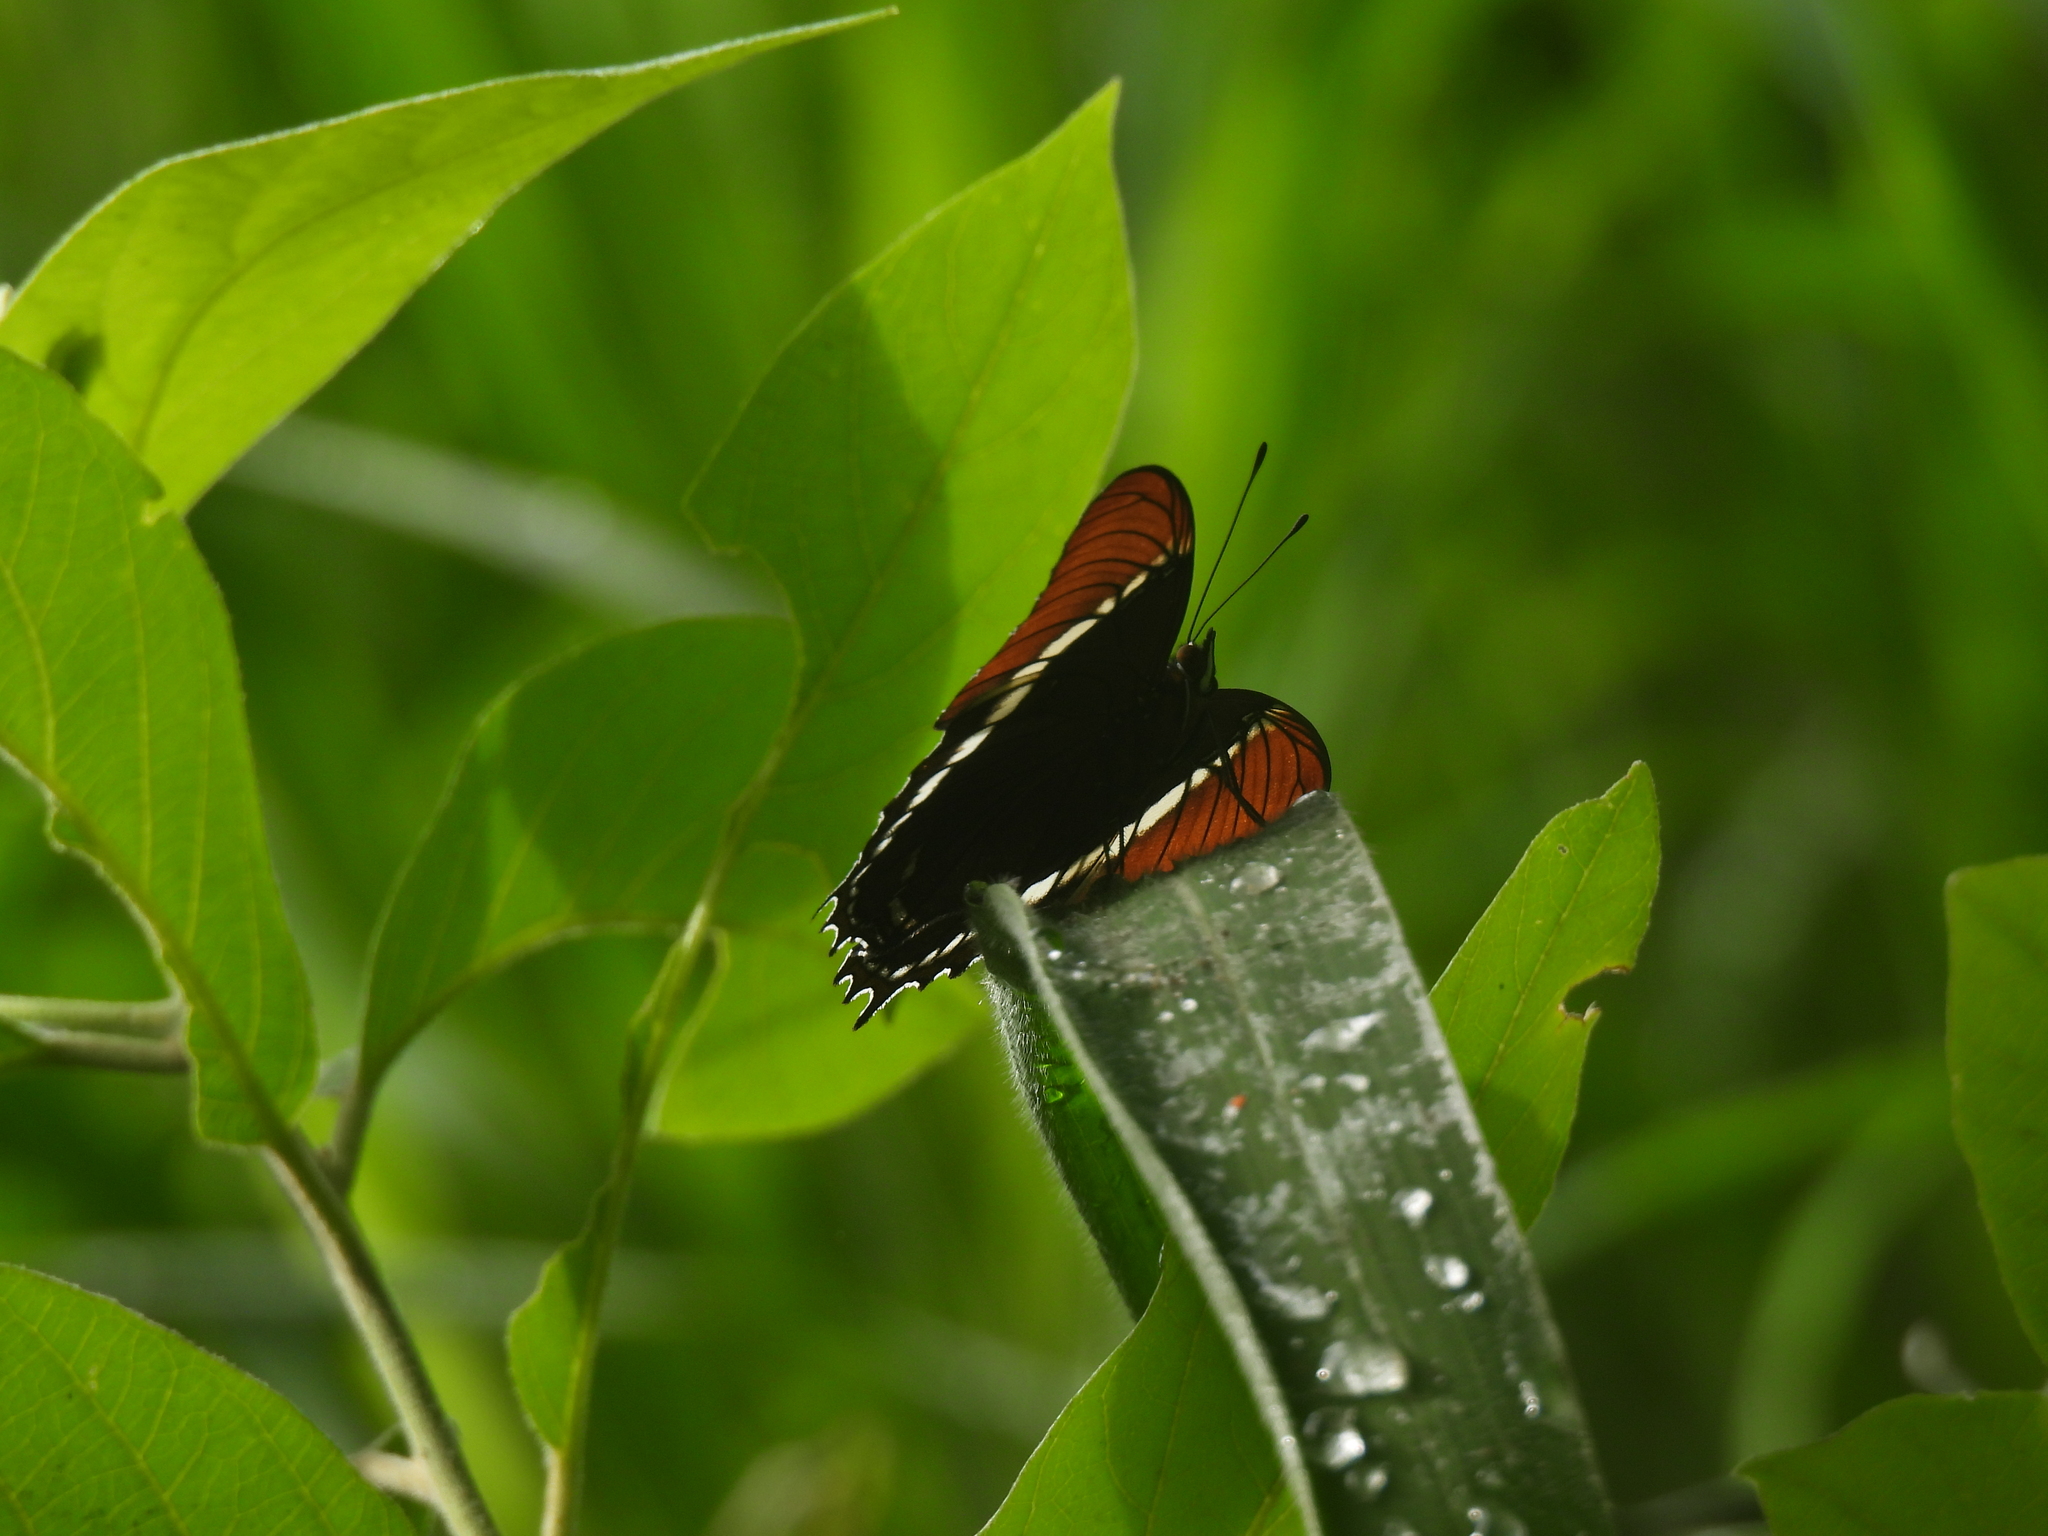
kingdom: Animalia
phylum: Arthropoda
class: Insecta
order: Lepidoptera
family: Nymphalidae
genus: Siproeta
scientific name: Siproeta epaphus
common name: Rusty-tipped page
